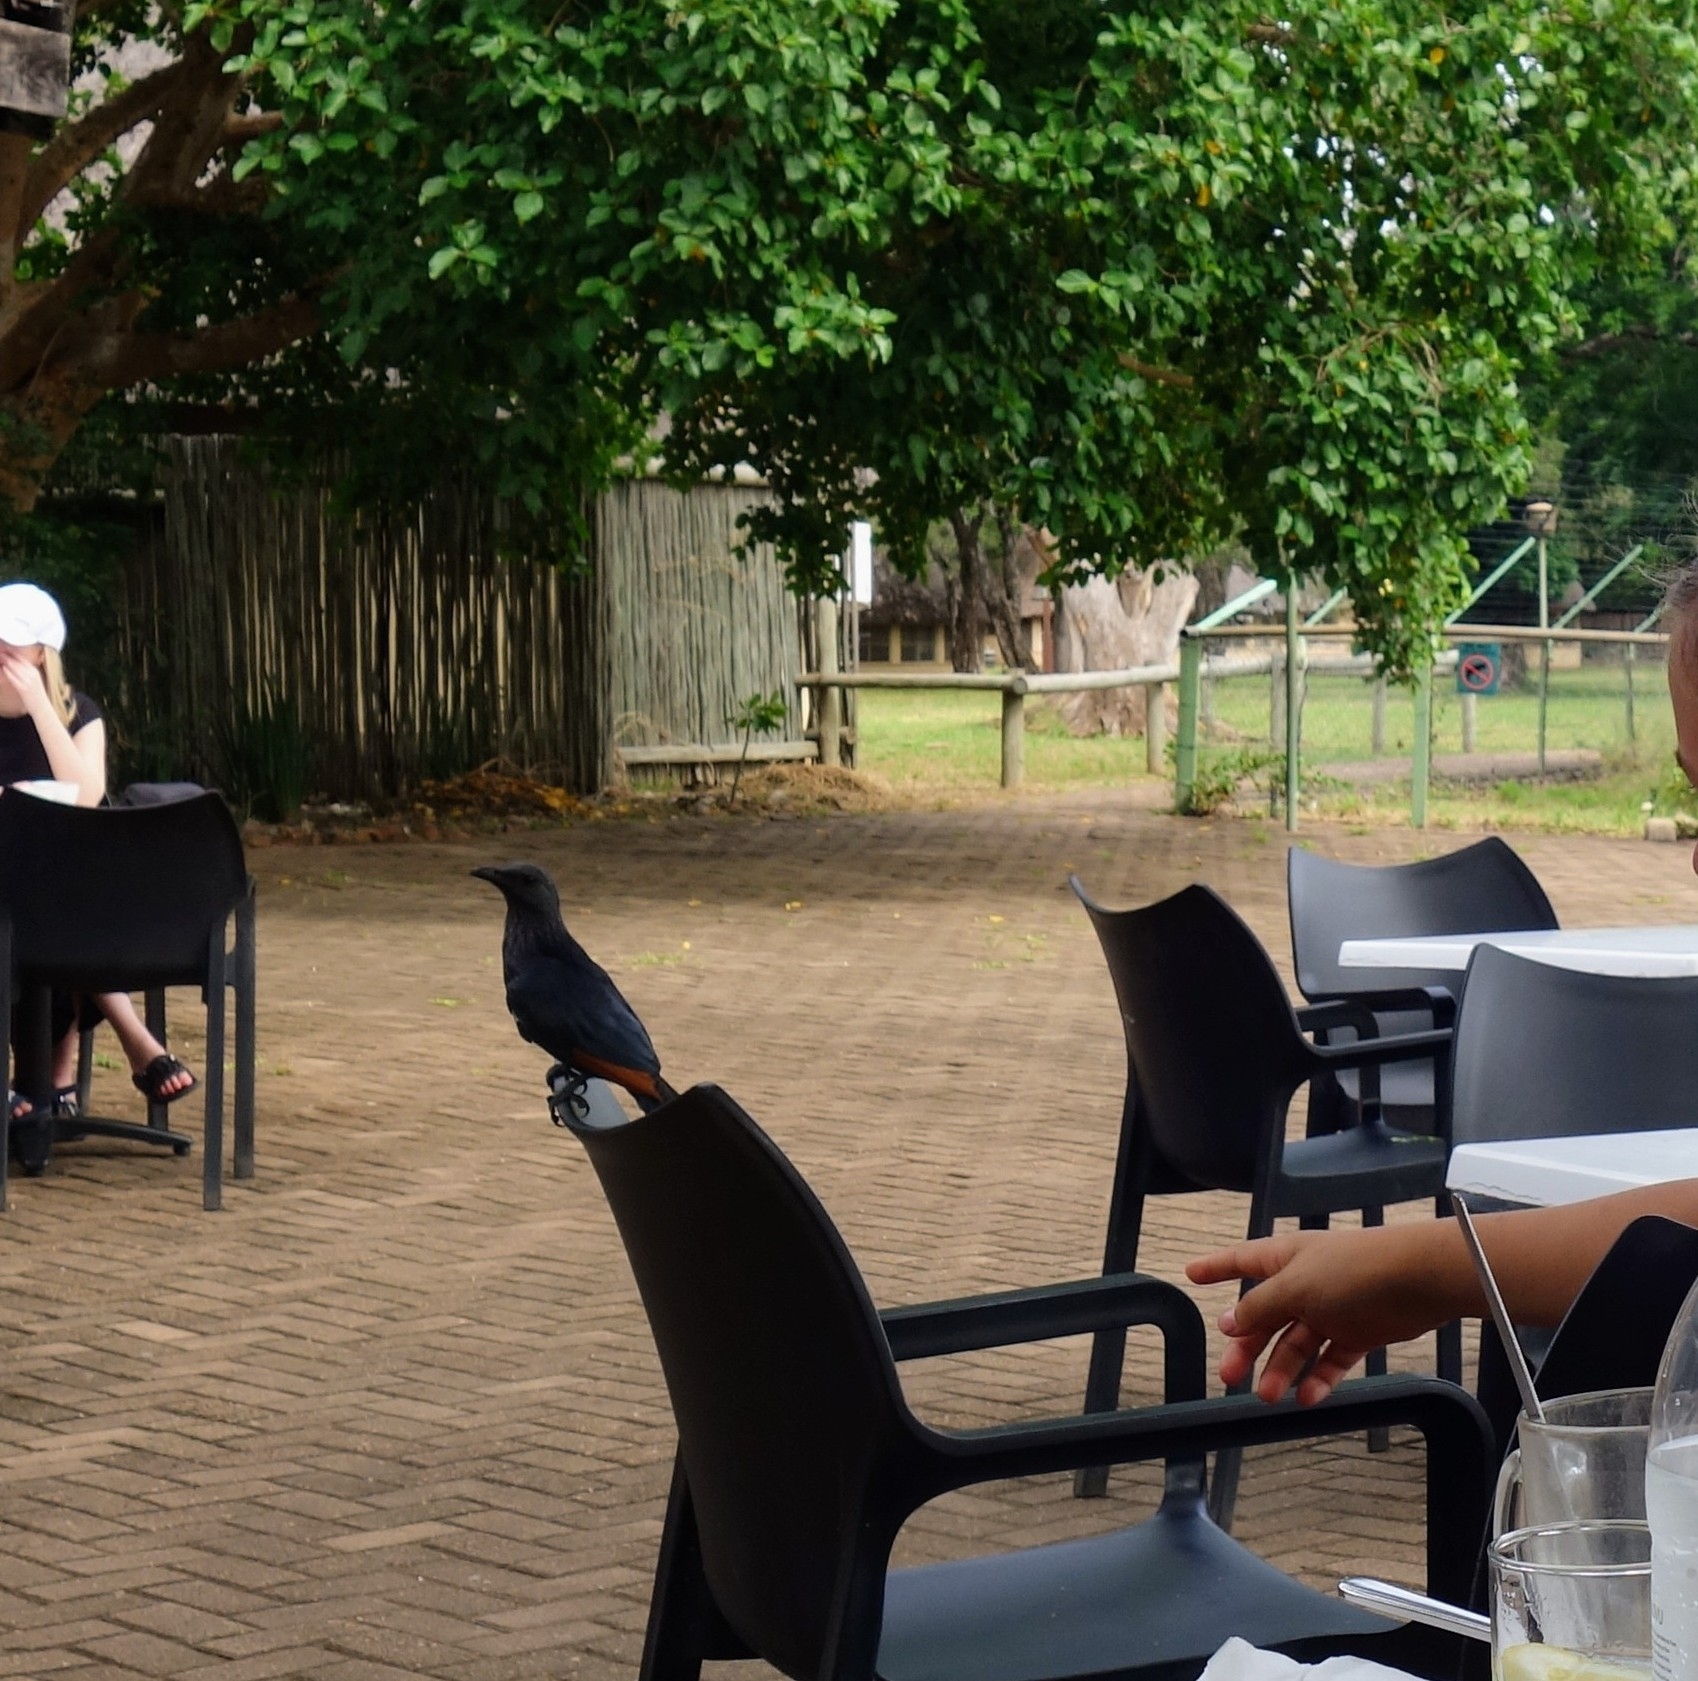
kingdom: Animalia
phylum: Chordata
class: Aves
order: Passeriformes
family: Sturnidae
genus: Onychognathus
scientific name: Onychognathus morio
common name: Red-winged starling
